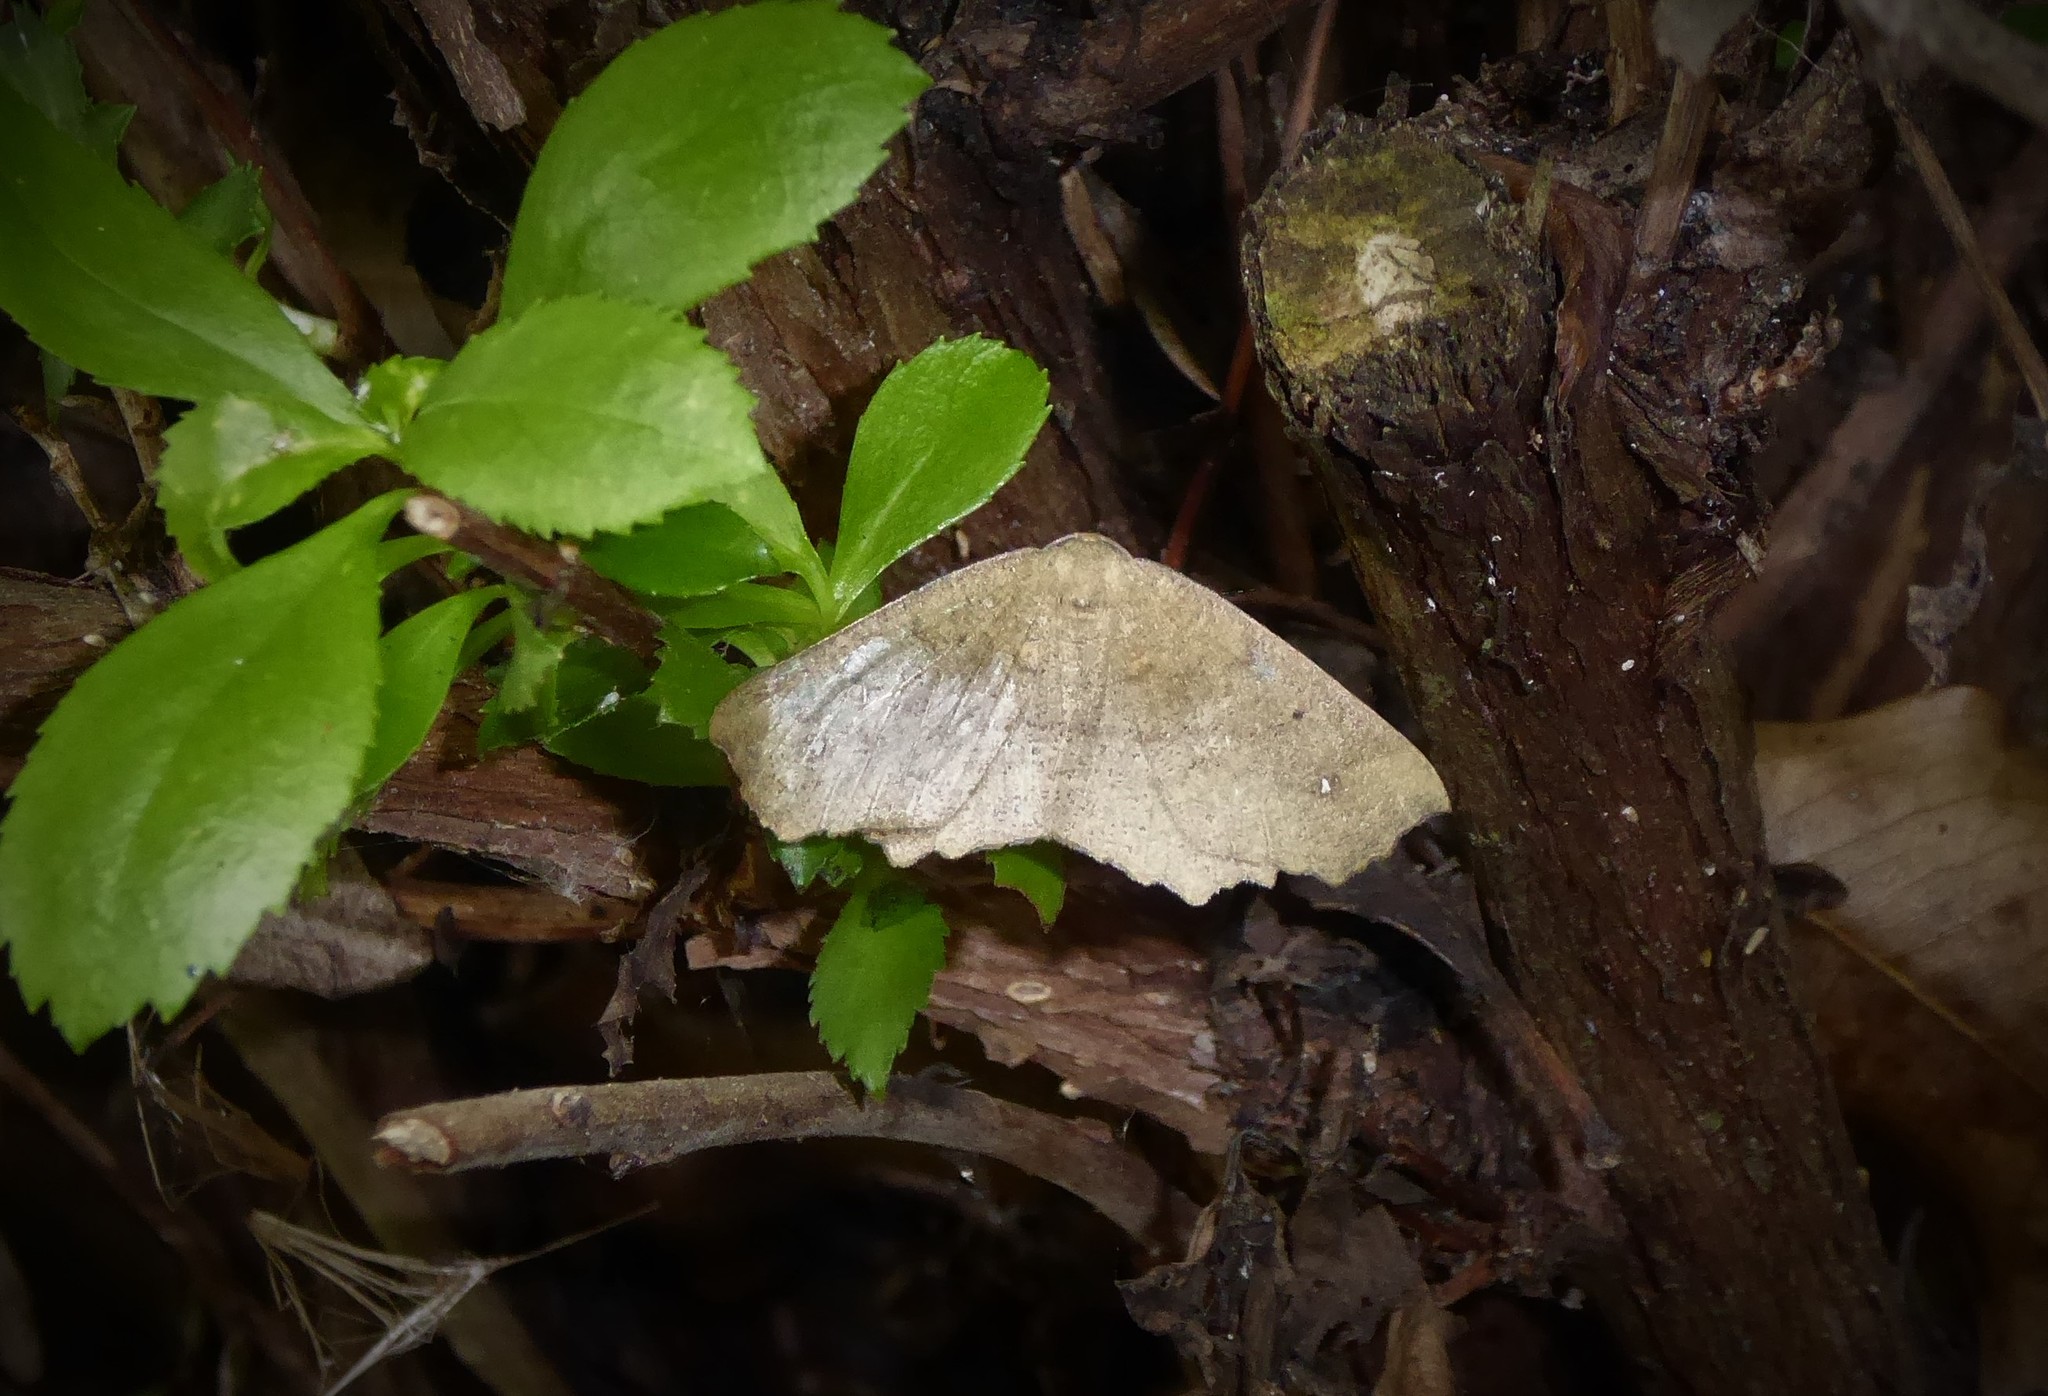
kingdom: Animalia
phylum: Arthropoda
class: Insecta
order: Lepidoptera
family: Geometridae
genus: Xyridacma
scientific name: Xyridacma ustaria
